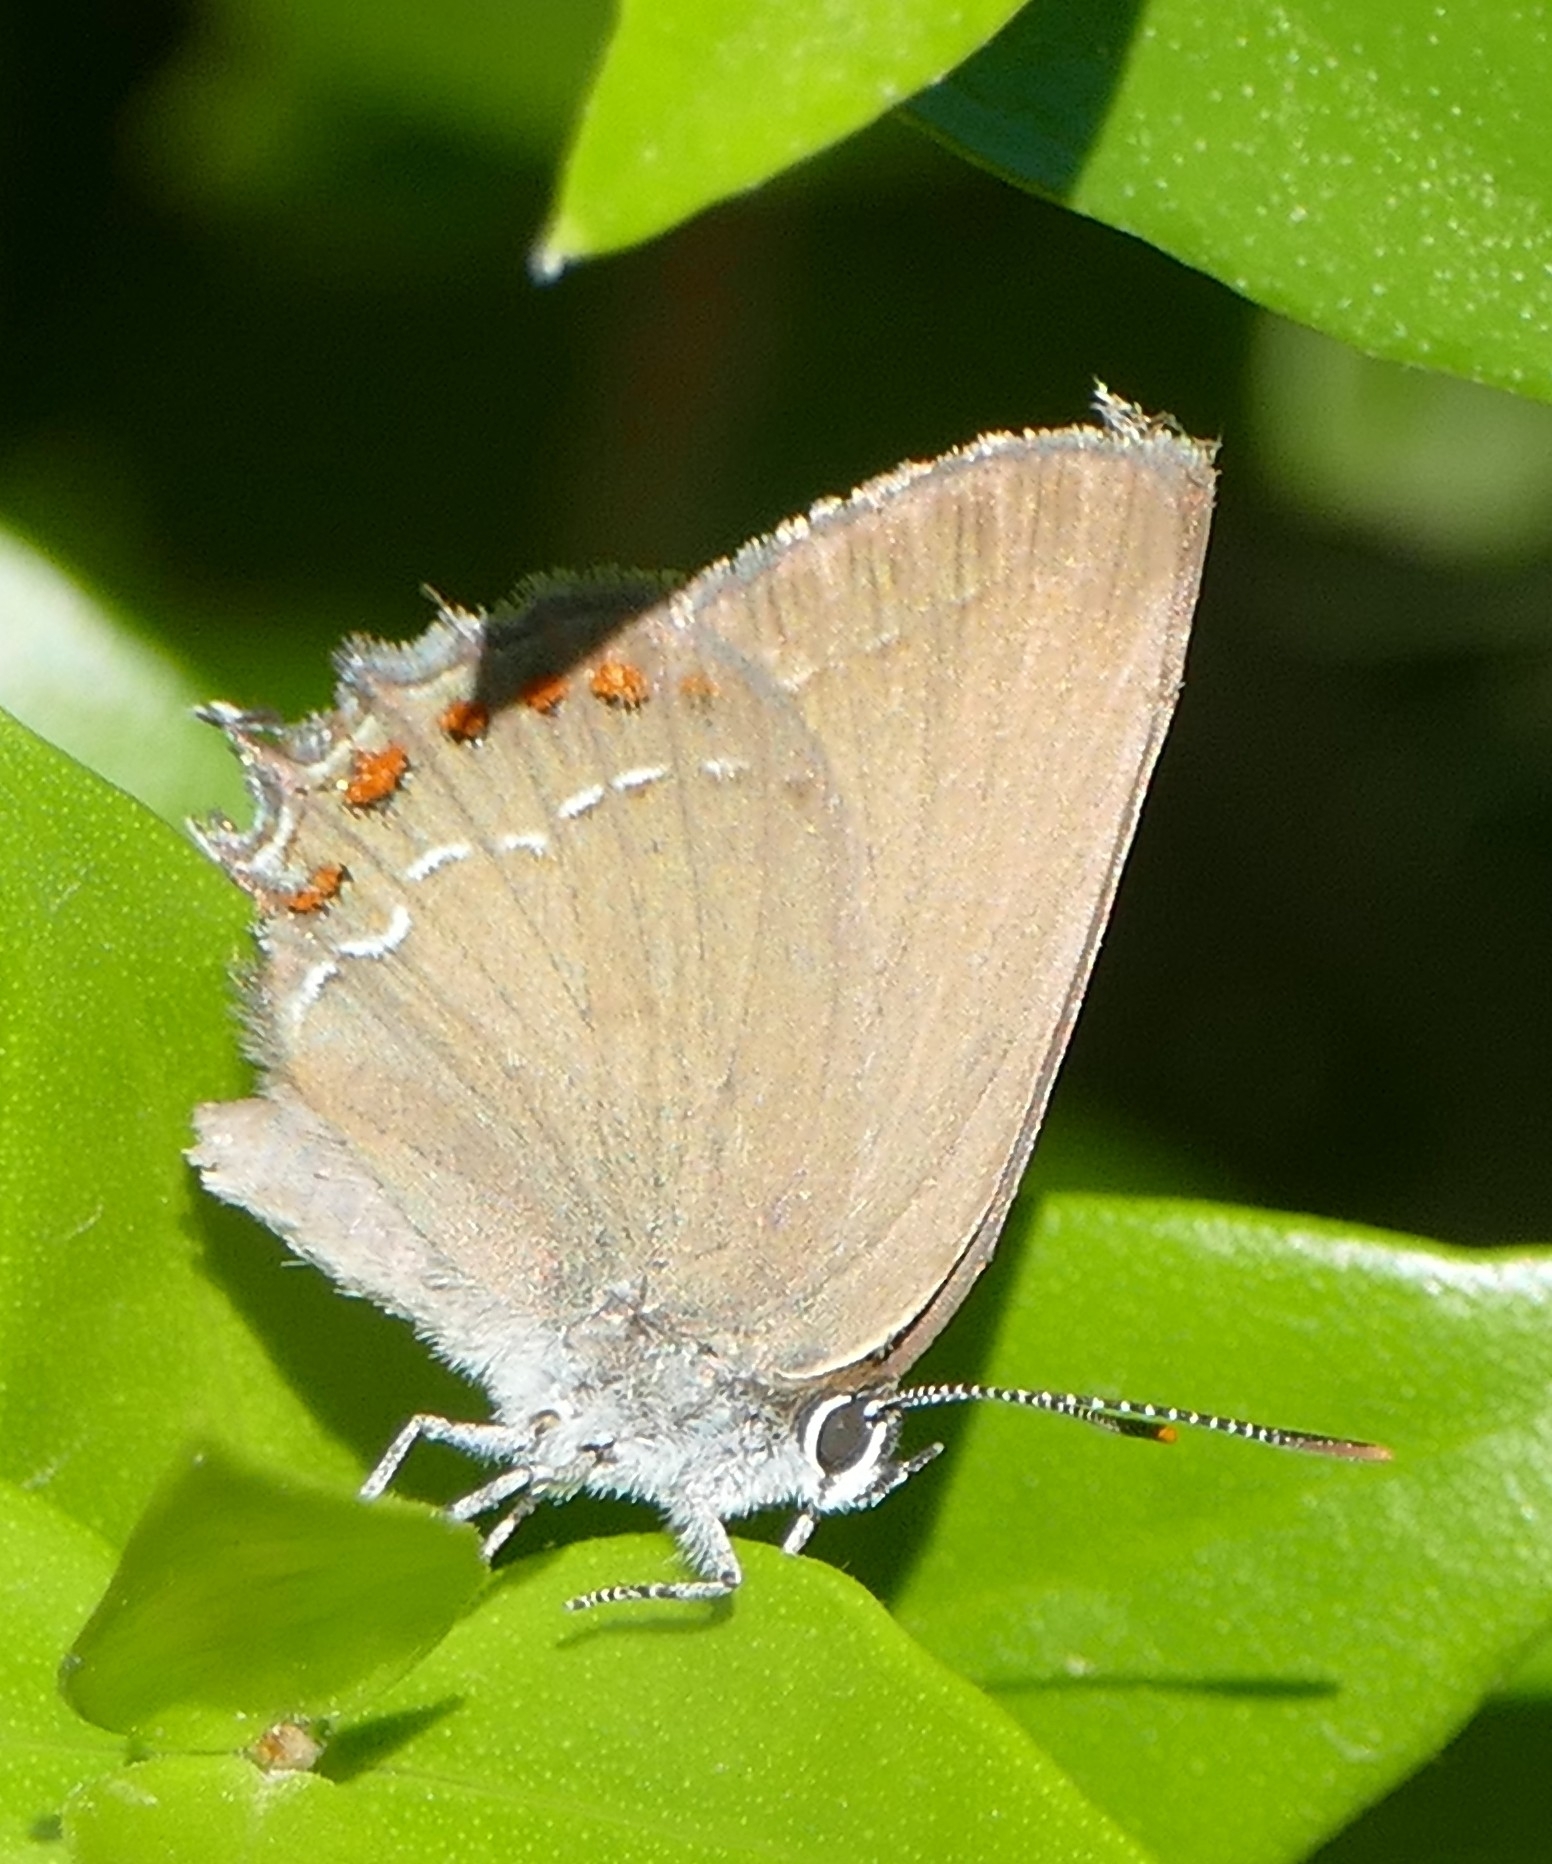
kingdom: Animalia
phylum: Arthropoda
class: Insecta
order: Lepidoptera
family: Lycaenidae
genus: Fixsenia
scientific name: Fixsenia esculi
